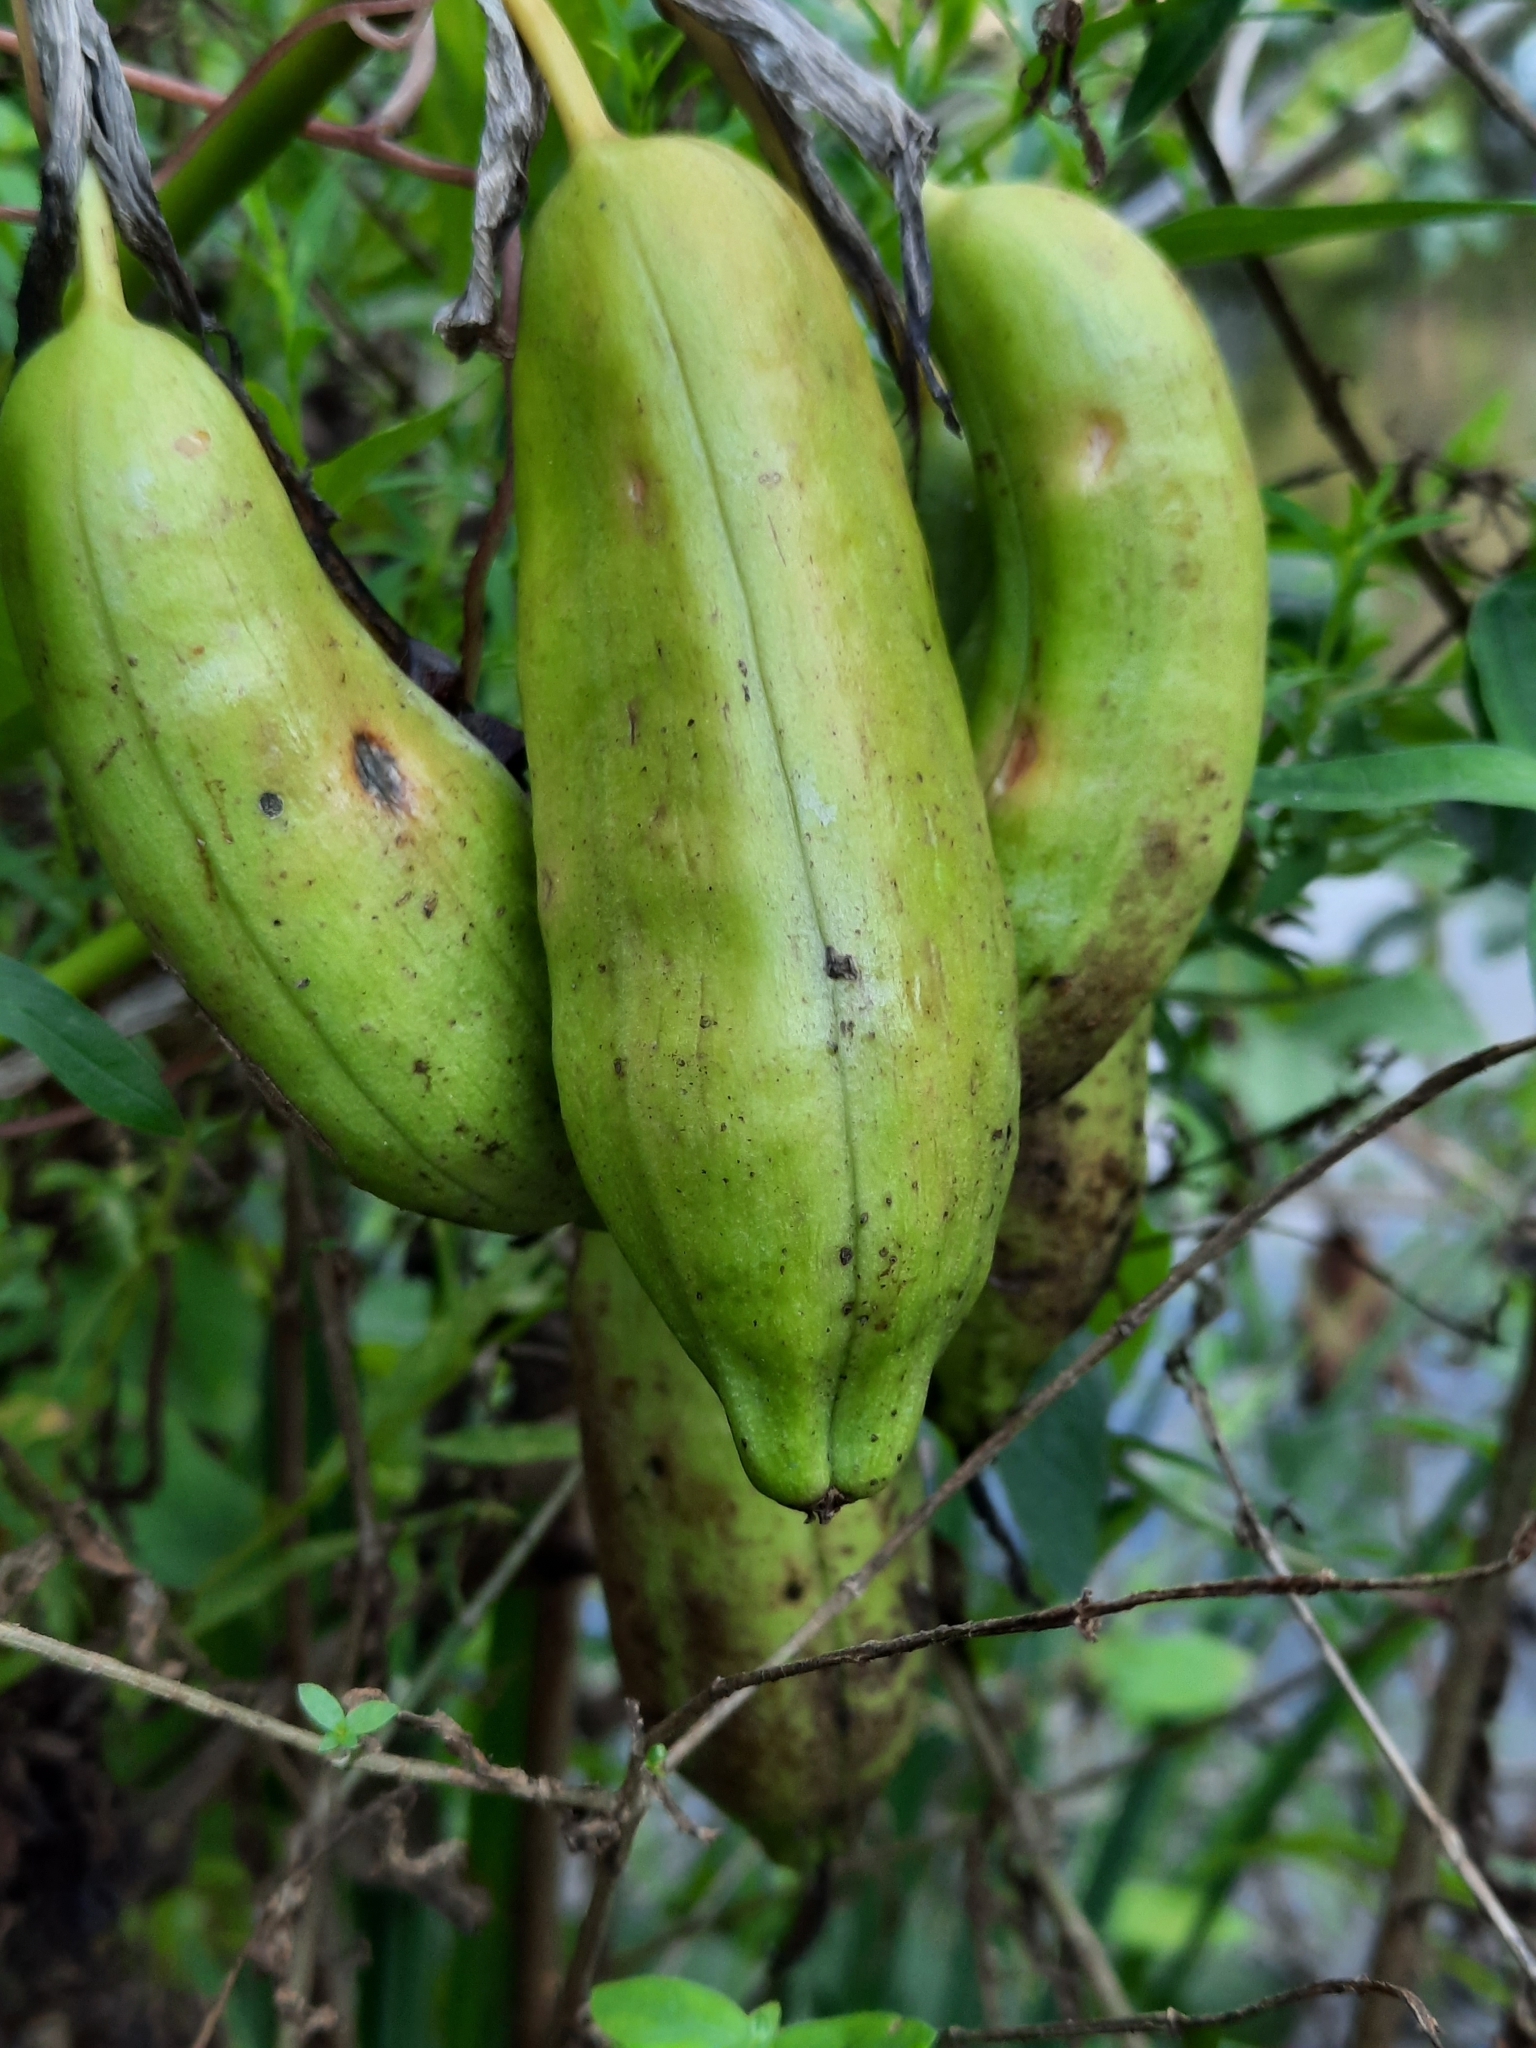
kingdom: Plantae
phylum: Tracheophyta
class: Liliopsida
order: Asparagales
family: Iridaceae
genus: Iris
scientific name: Iris pseudacorus
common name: Yellow flag
